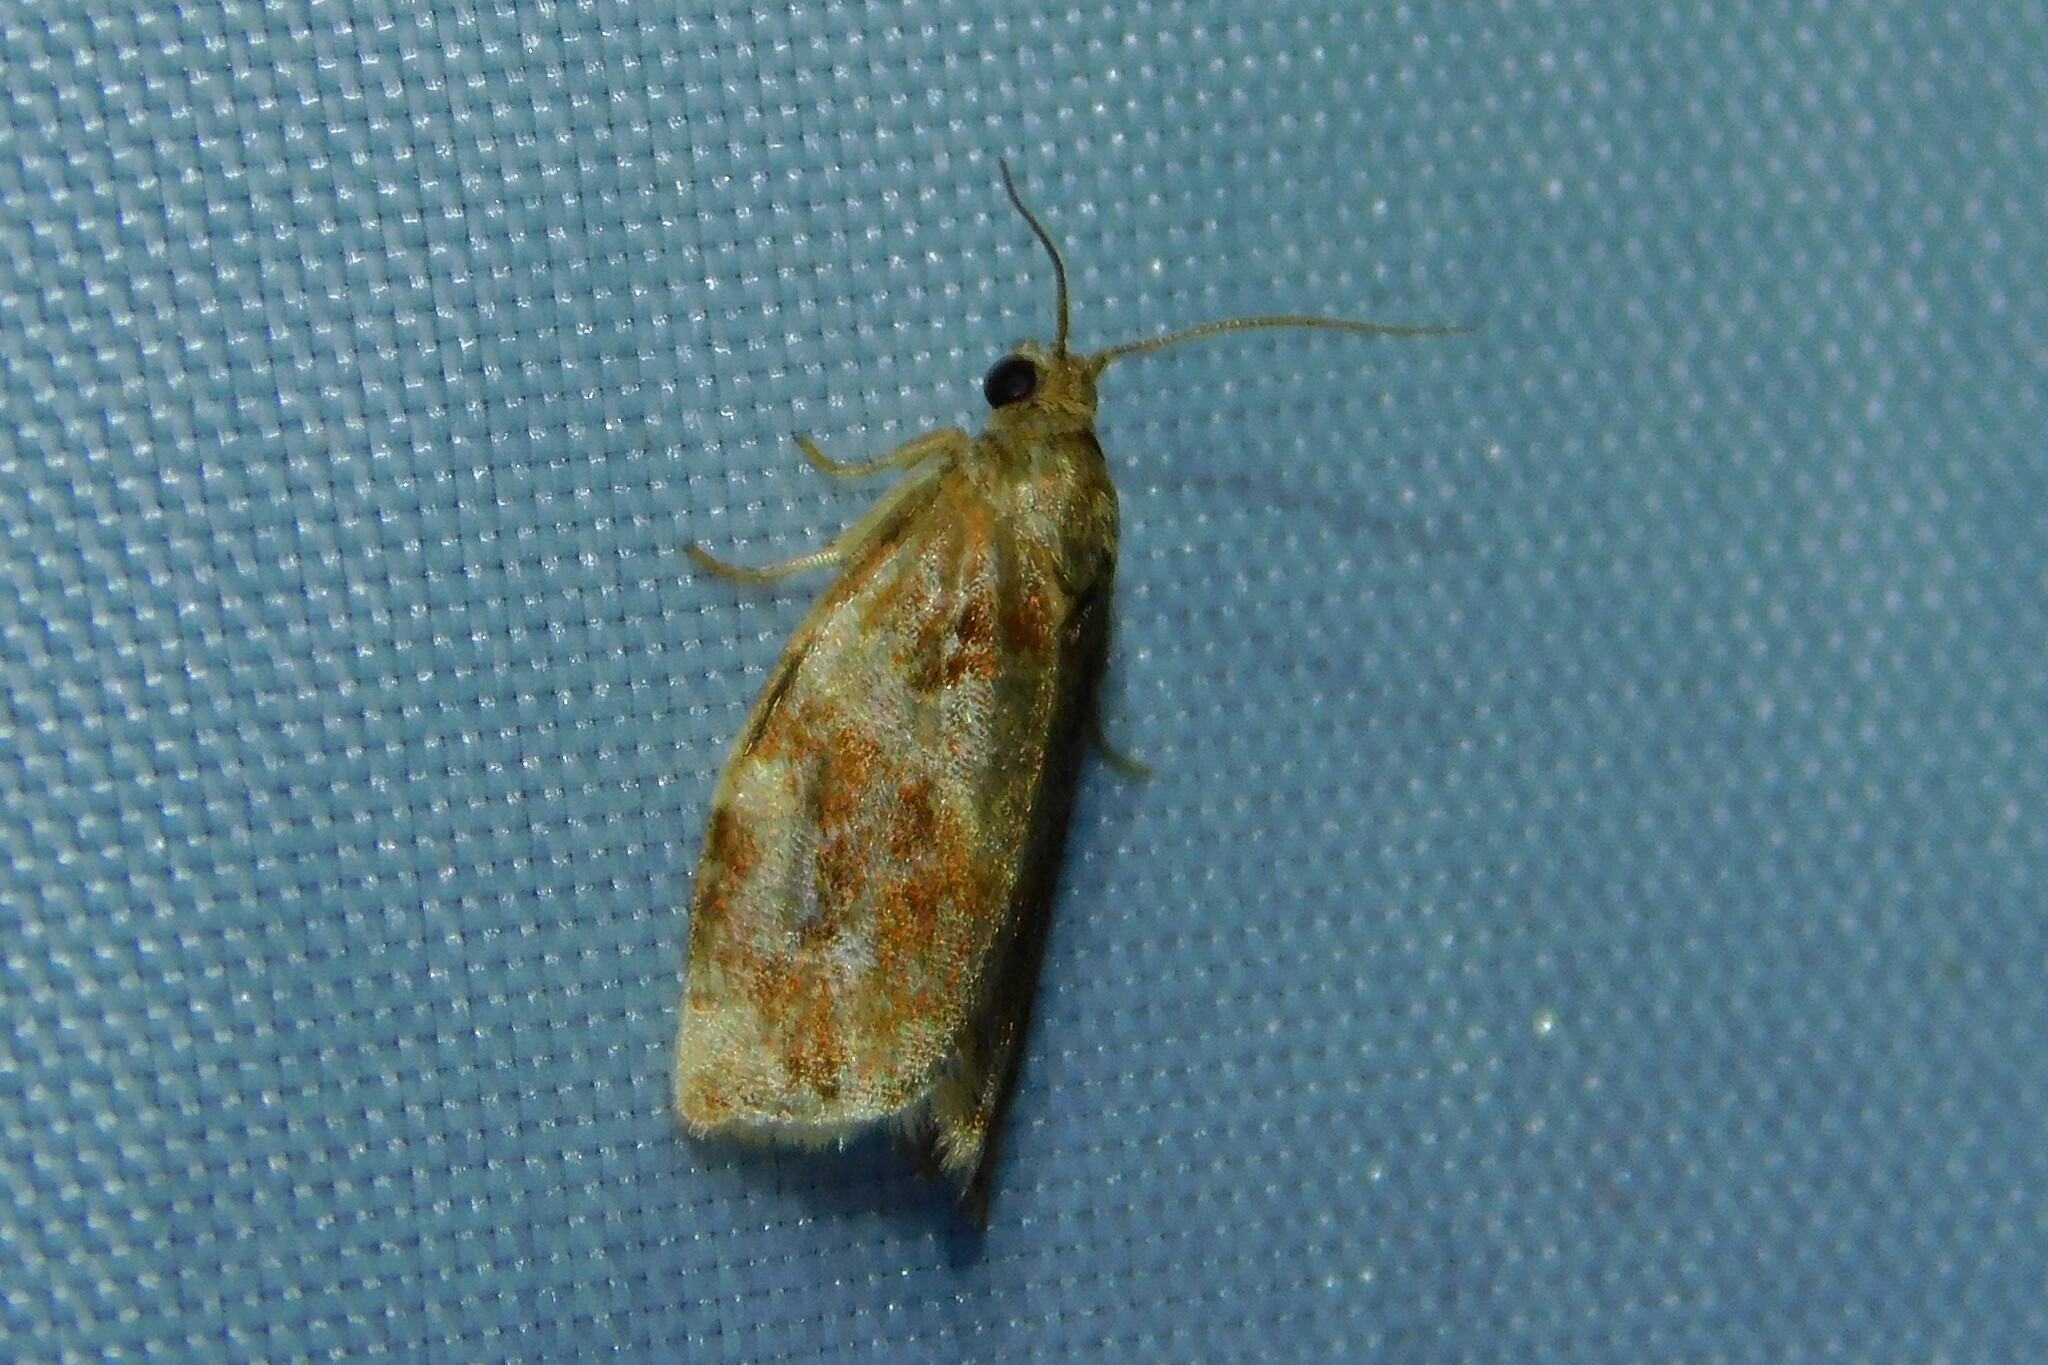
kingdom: Animalia
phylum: Arthropoda
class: Insecta
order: Lepidoptera
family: Tortricidae
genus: Archips
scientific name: Archips xylosteana
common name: Variegated golden tortrix
